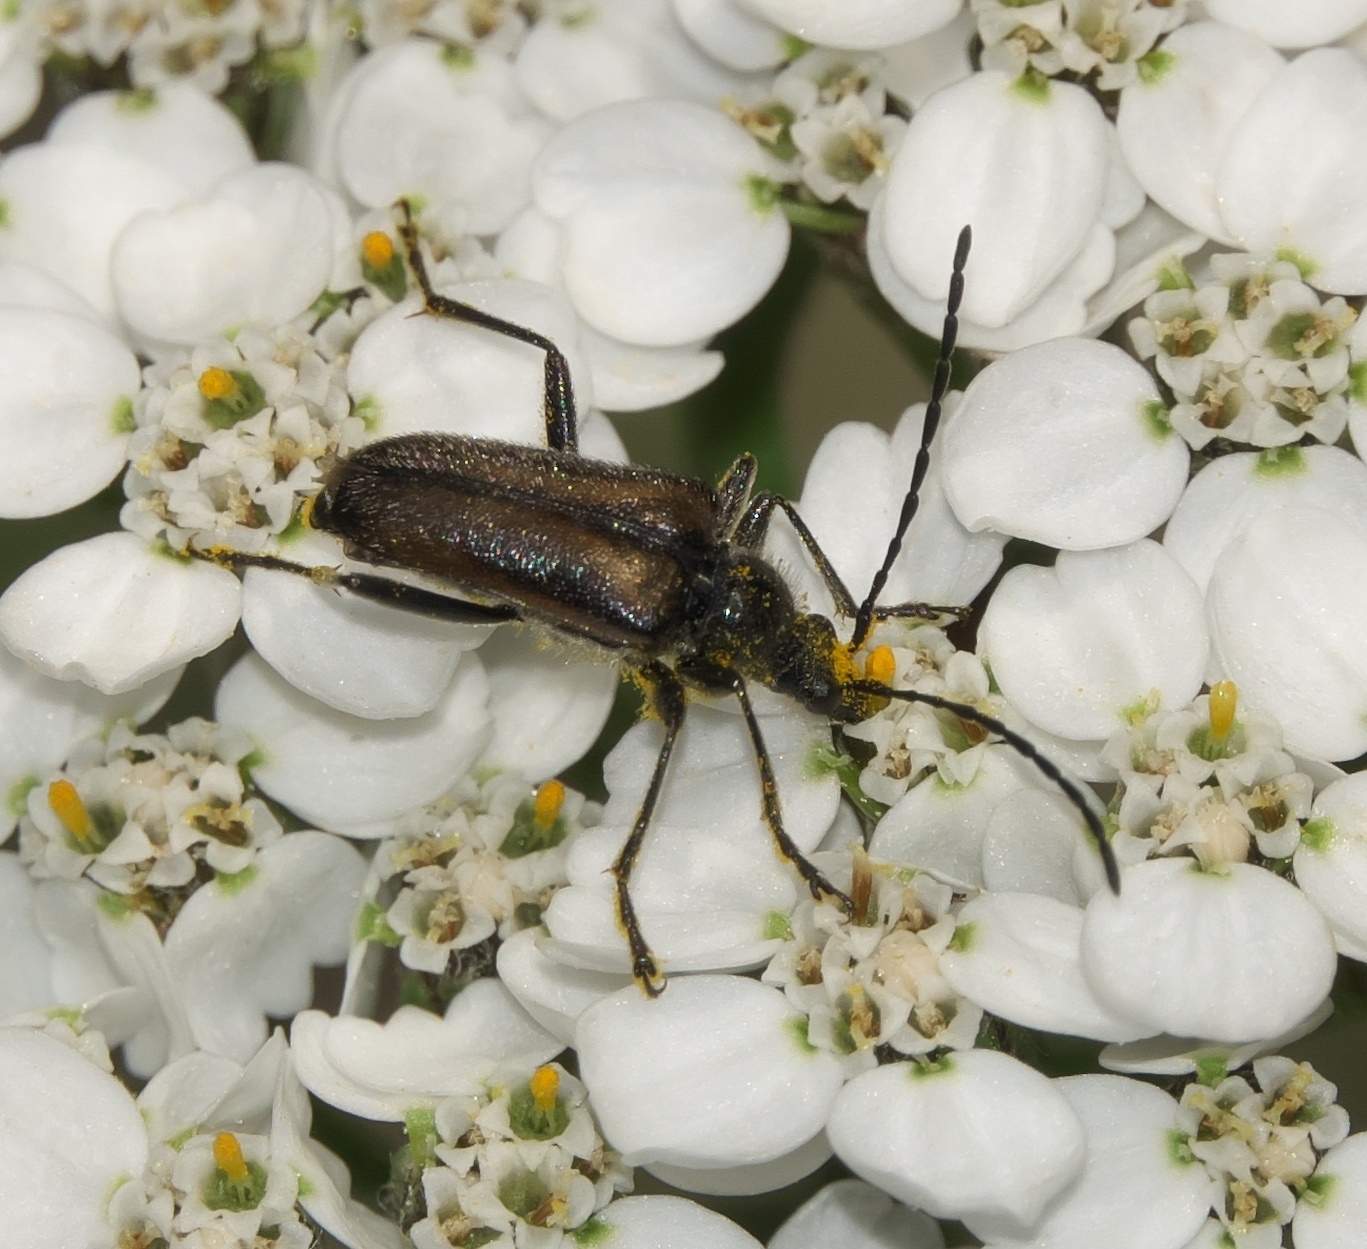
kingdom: Animalia
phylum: Arthropoda
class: Insecta
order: Coleoptera
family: Cerambycidae
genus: Gnathacmaeops
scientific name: Gnathacmaeops pratensis
